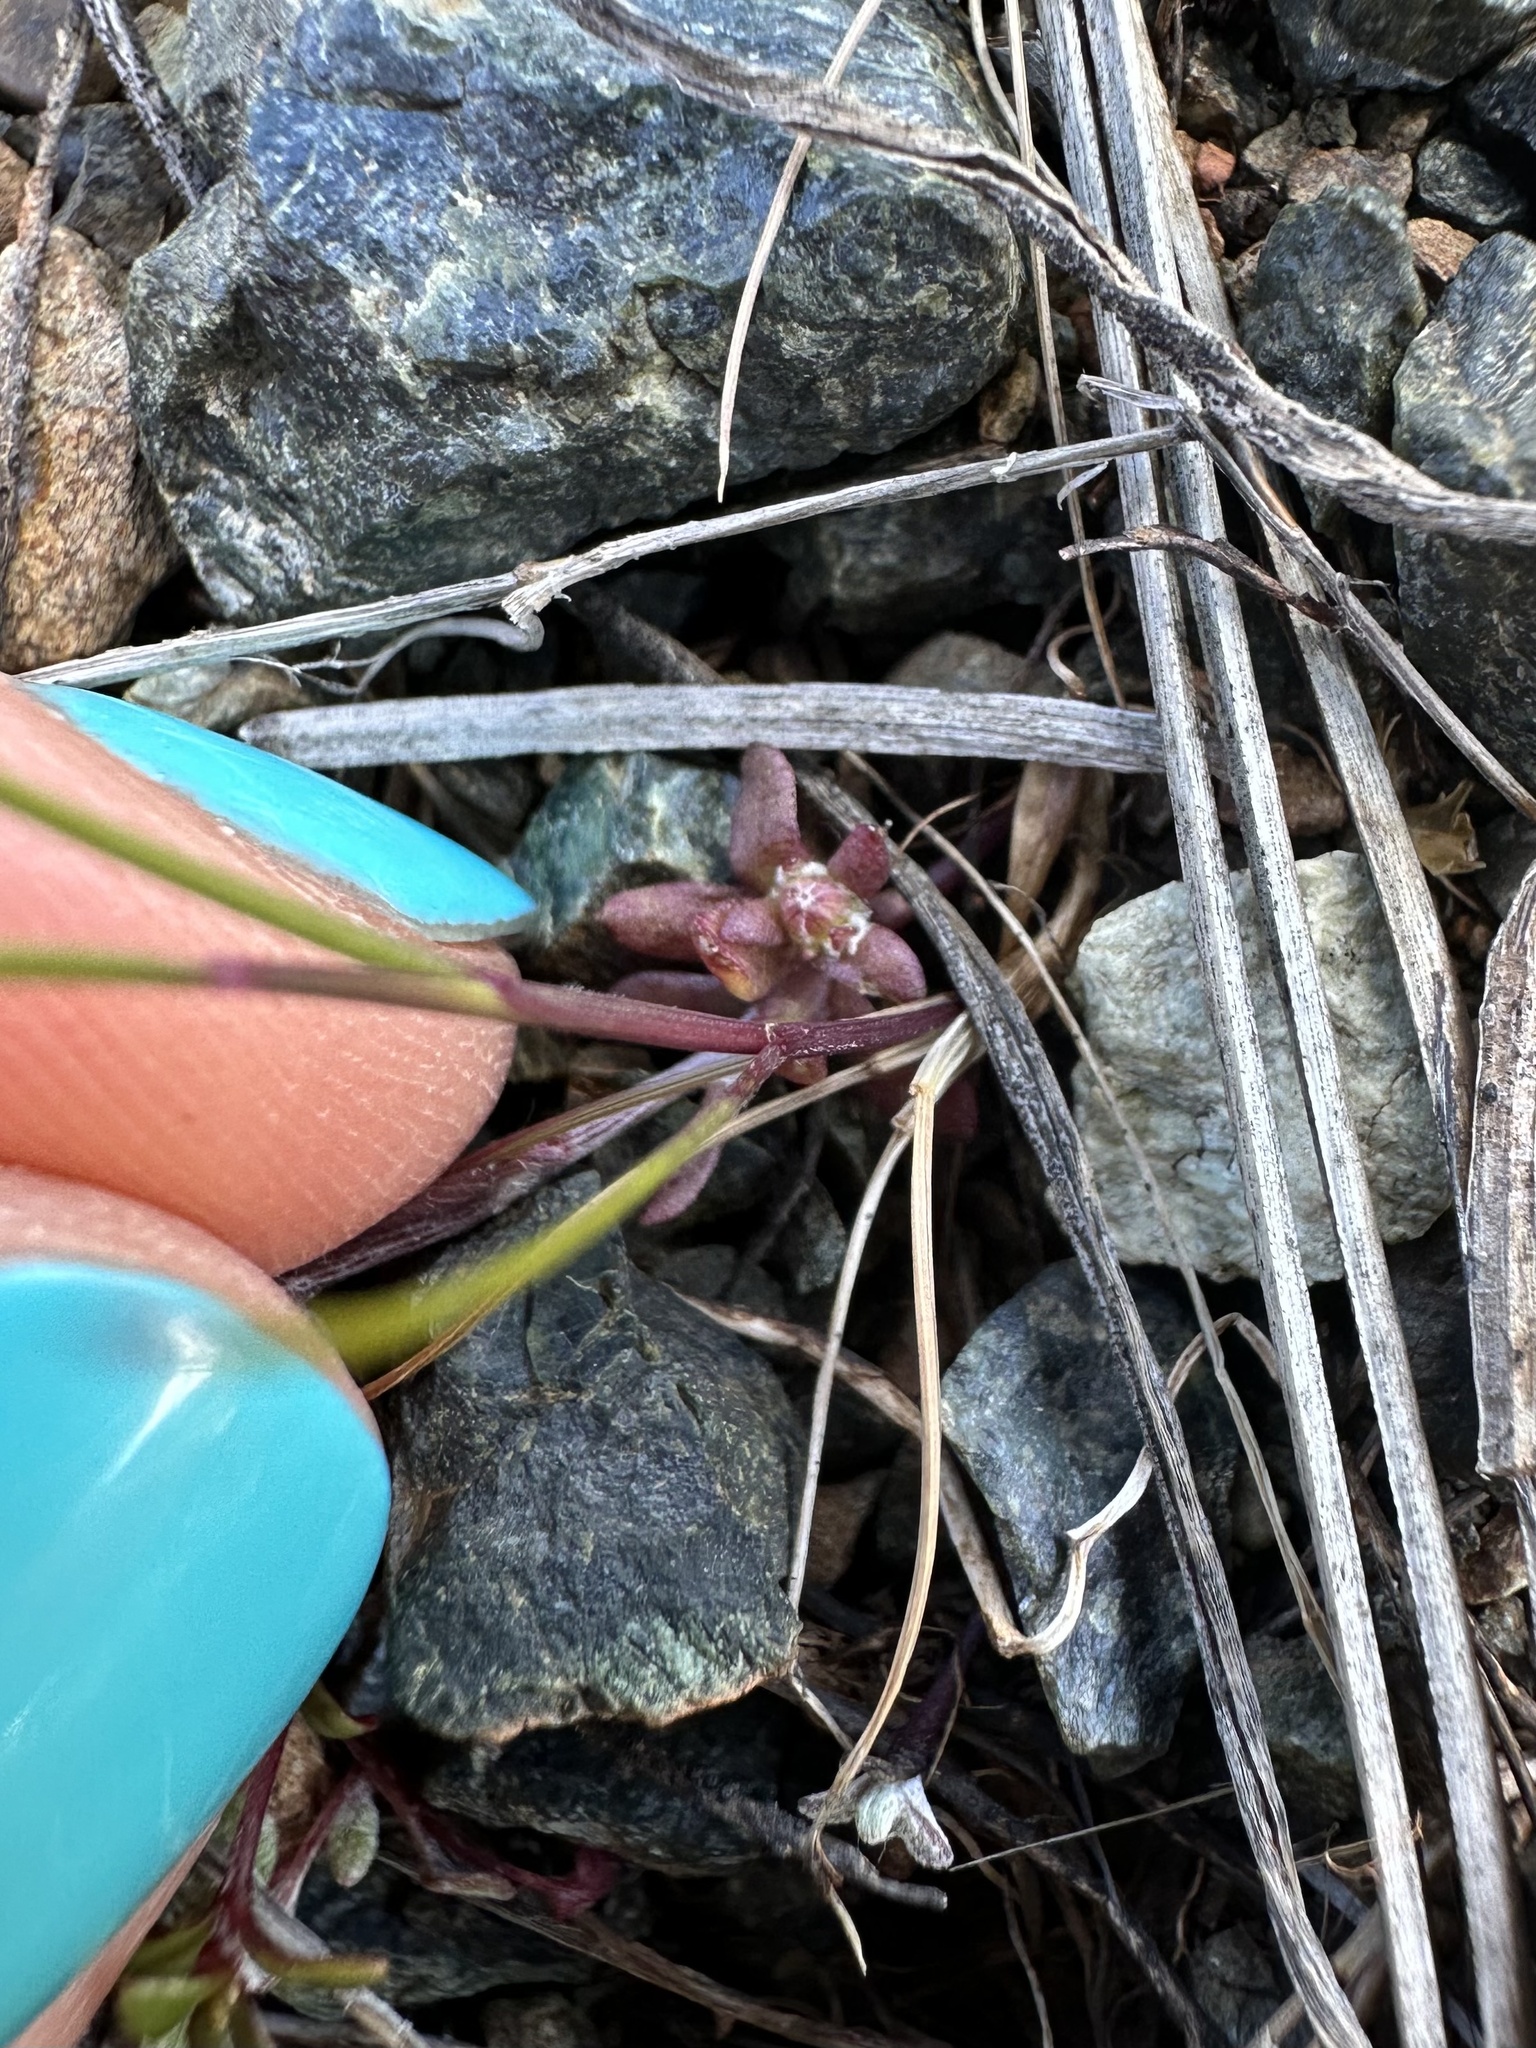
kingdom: Plantae
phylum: Tracheophyta
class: Magnoliopsida
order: Asterales
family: Asteraceae
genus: Crocidium
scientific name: Crocidium multicaule
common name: Common spring gold
